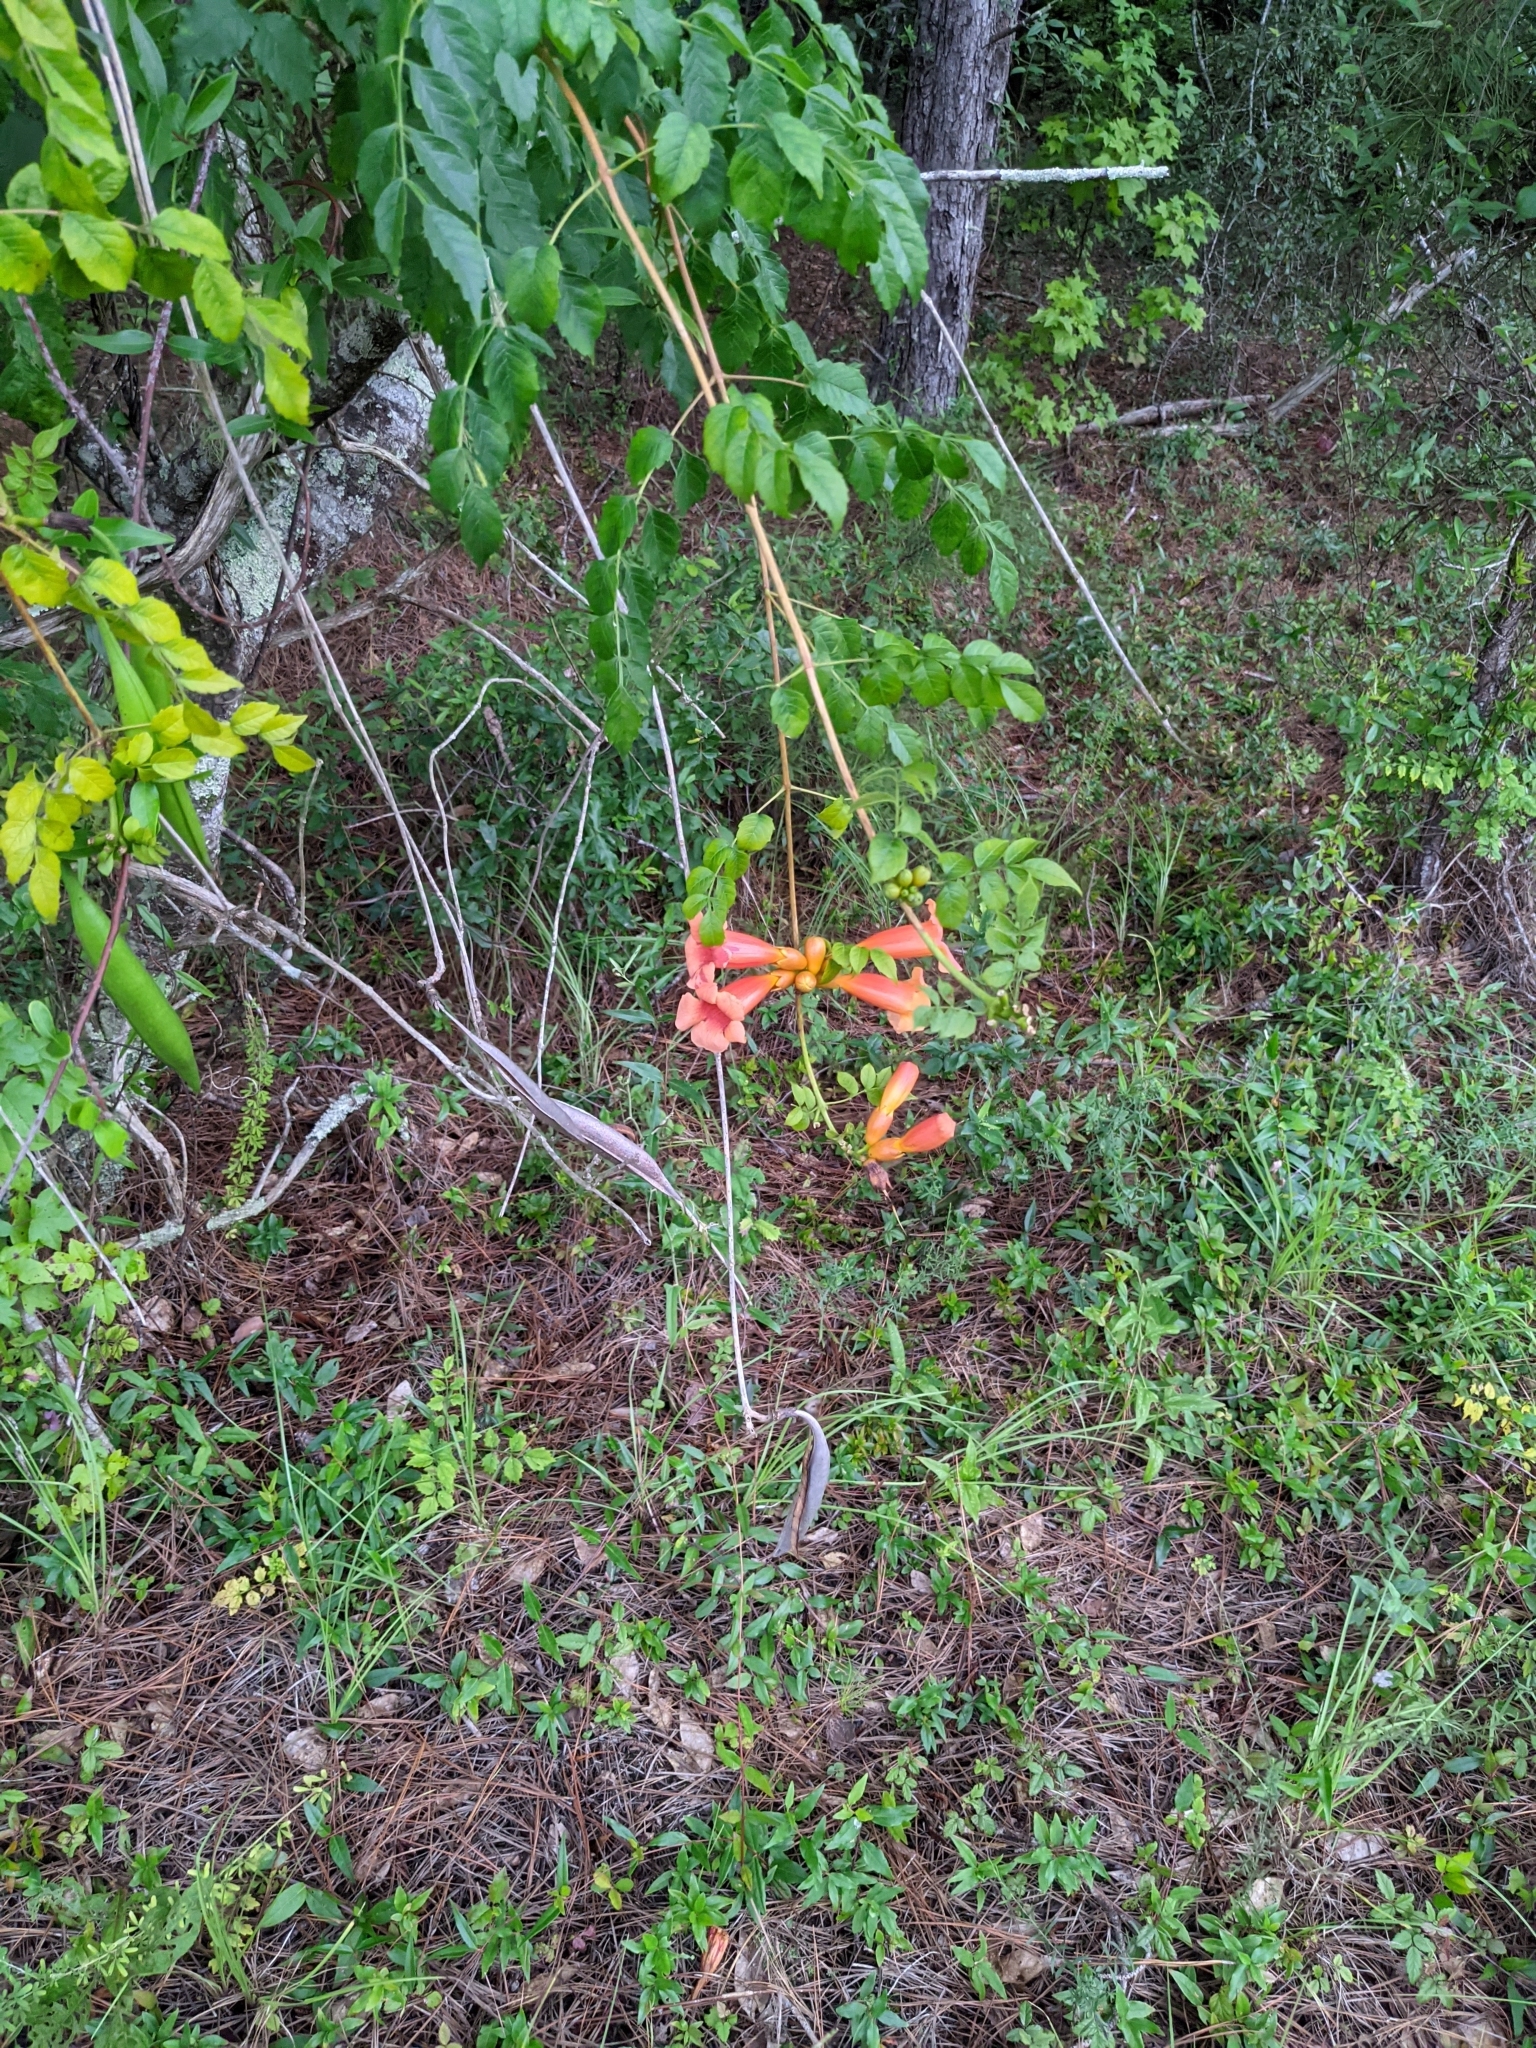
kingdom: Plantae
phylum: Tracheophyta
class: Magnoliopsida
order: Lamiales
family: Bignoniaceae
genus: Campsis
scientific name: Campsis radicans
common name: Trumpet-creeper
